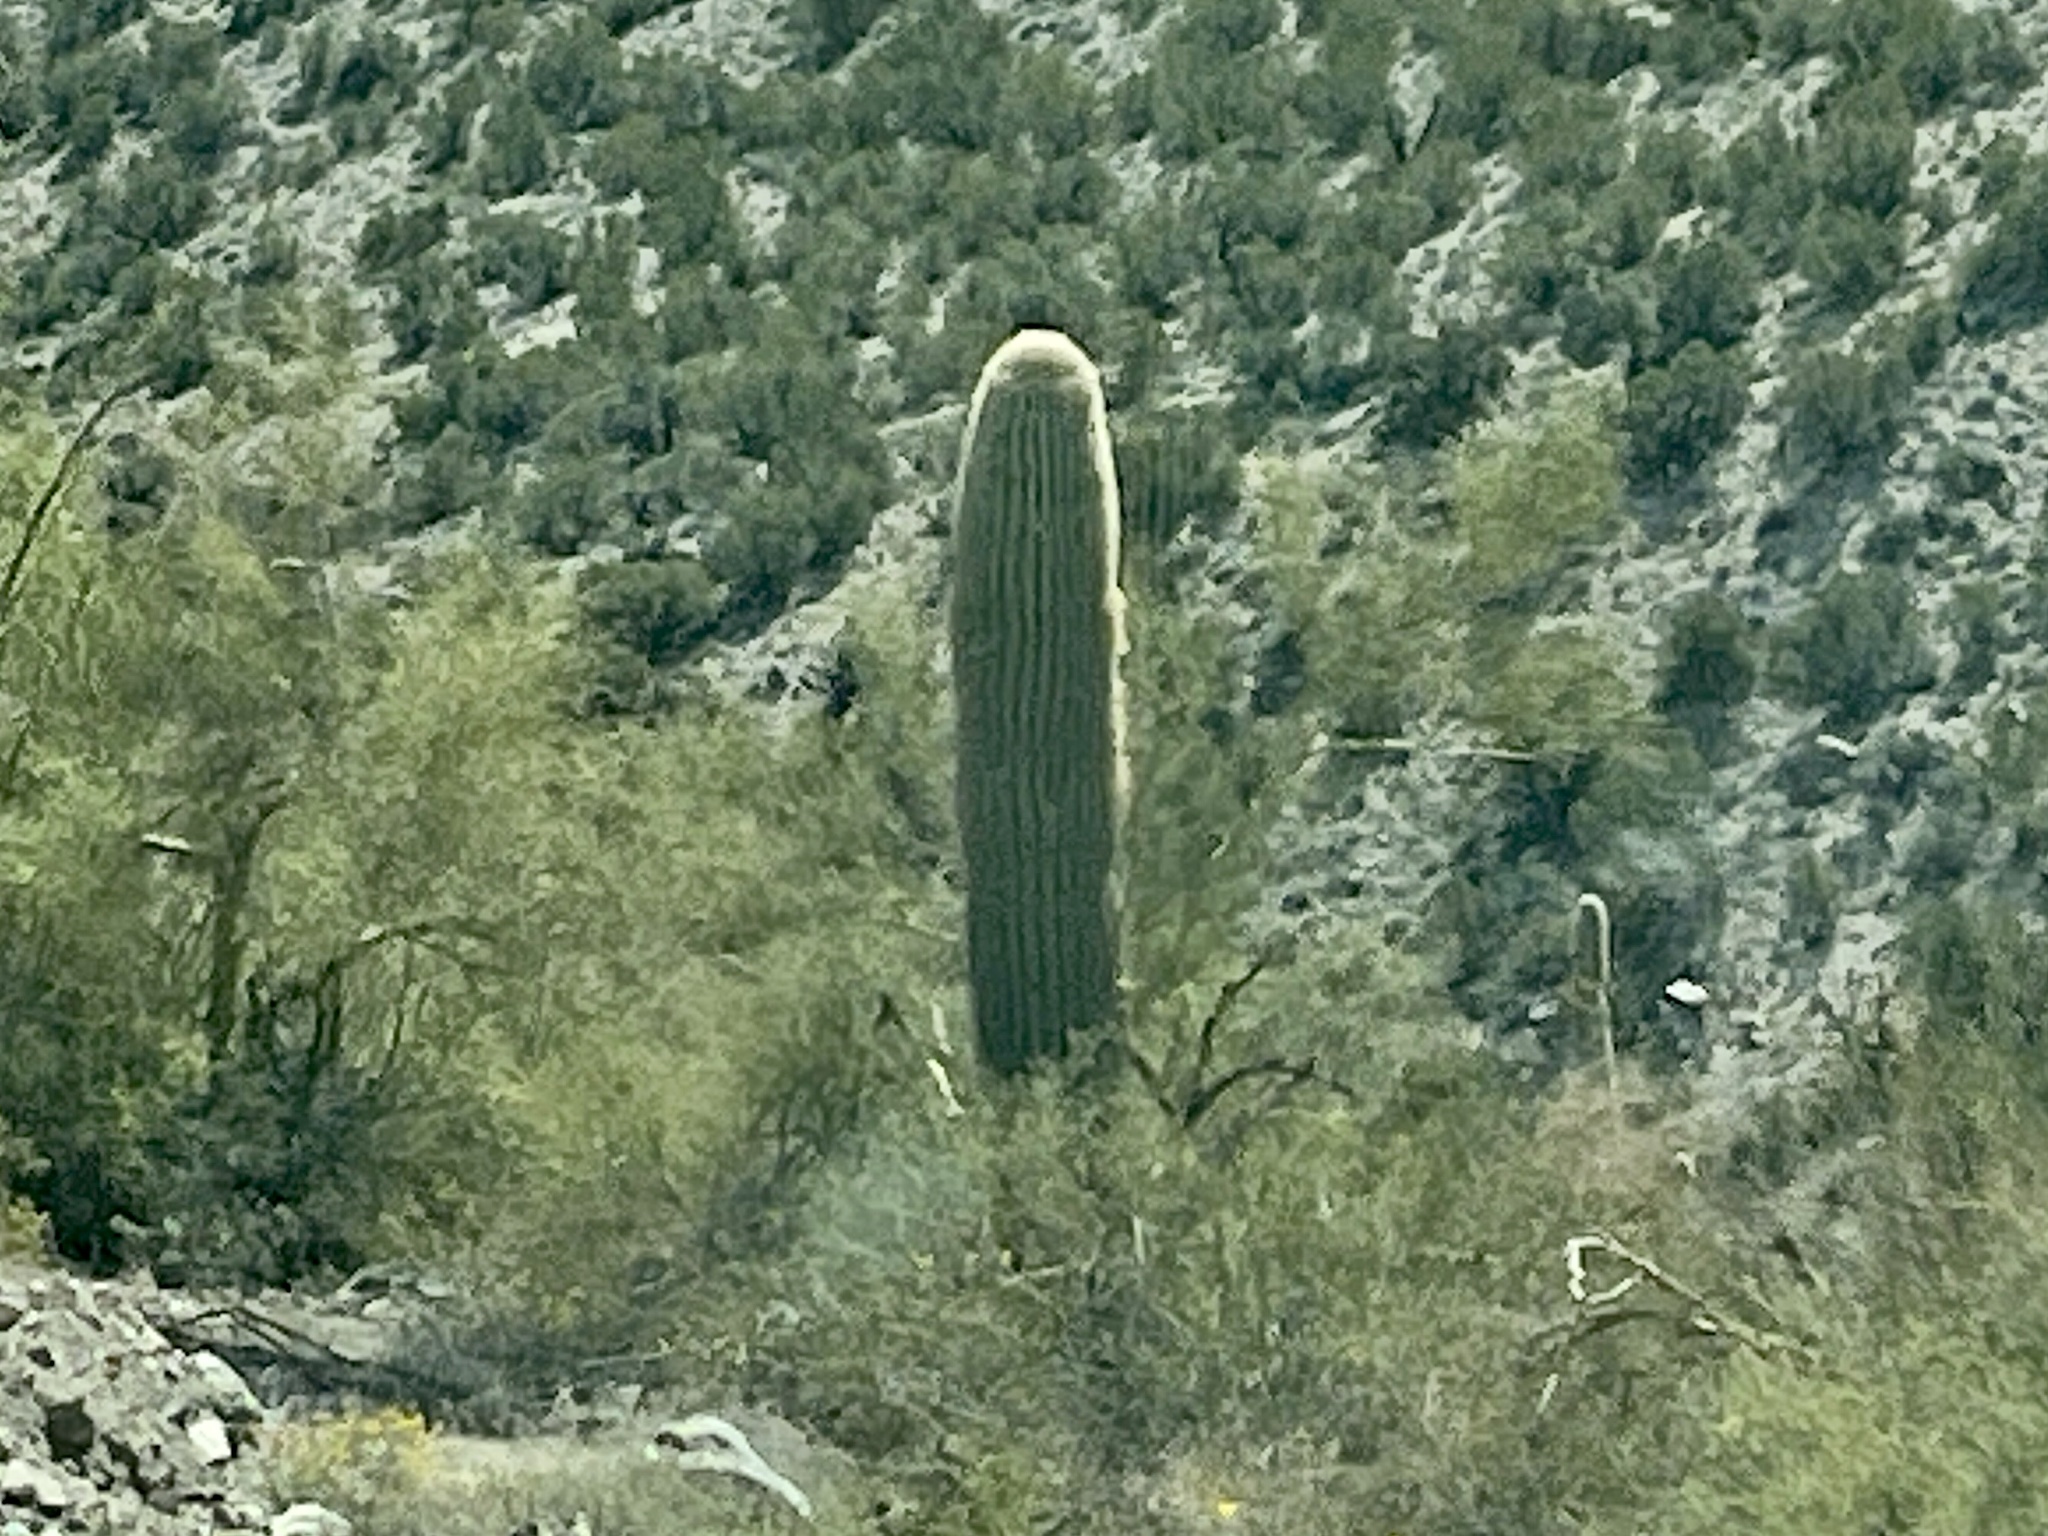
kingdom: Plantae
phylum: Tracheophyta
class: Magnoliopsida
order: Caryophyllales
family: Cactaceae
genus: Carnegiea
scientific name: Carnegiea gigantea
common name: Saguaro
